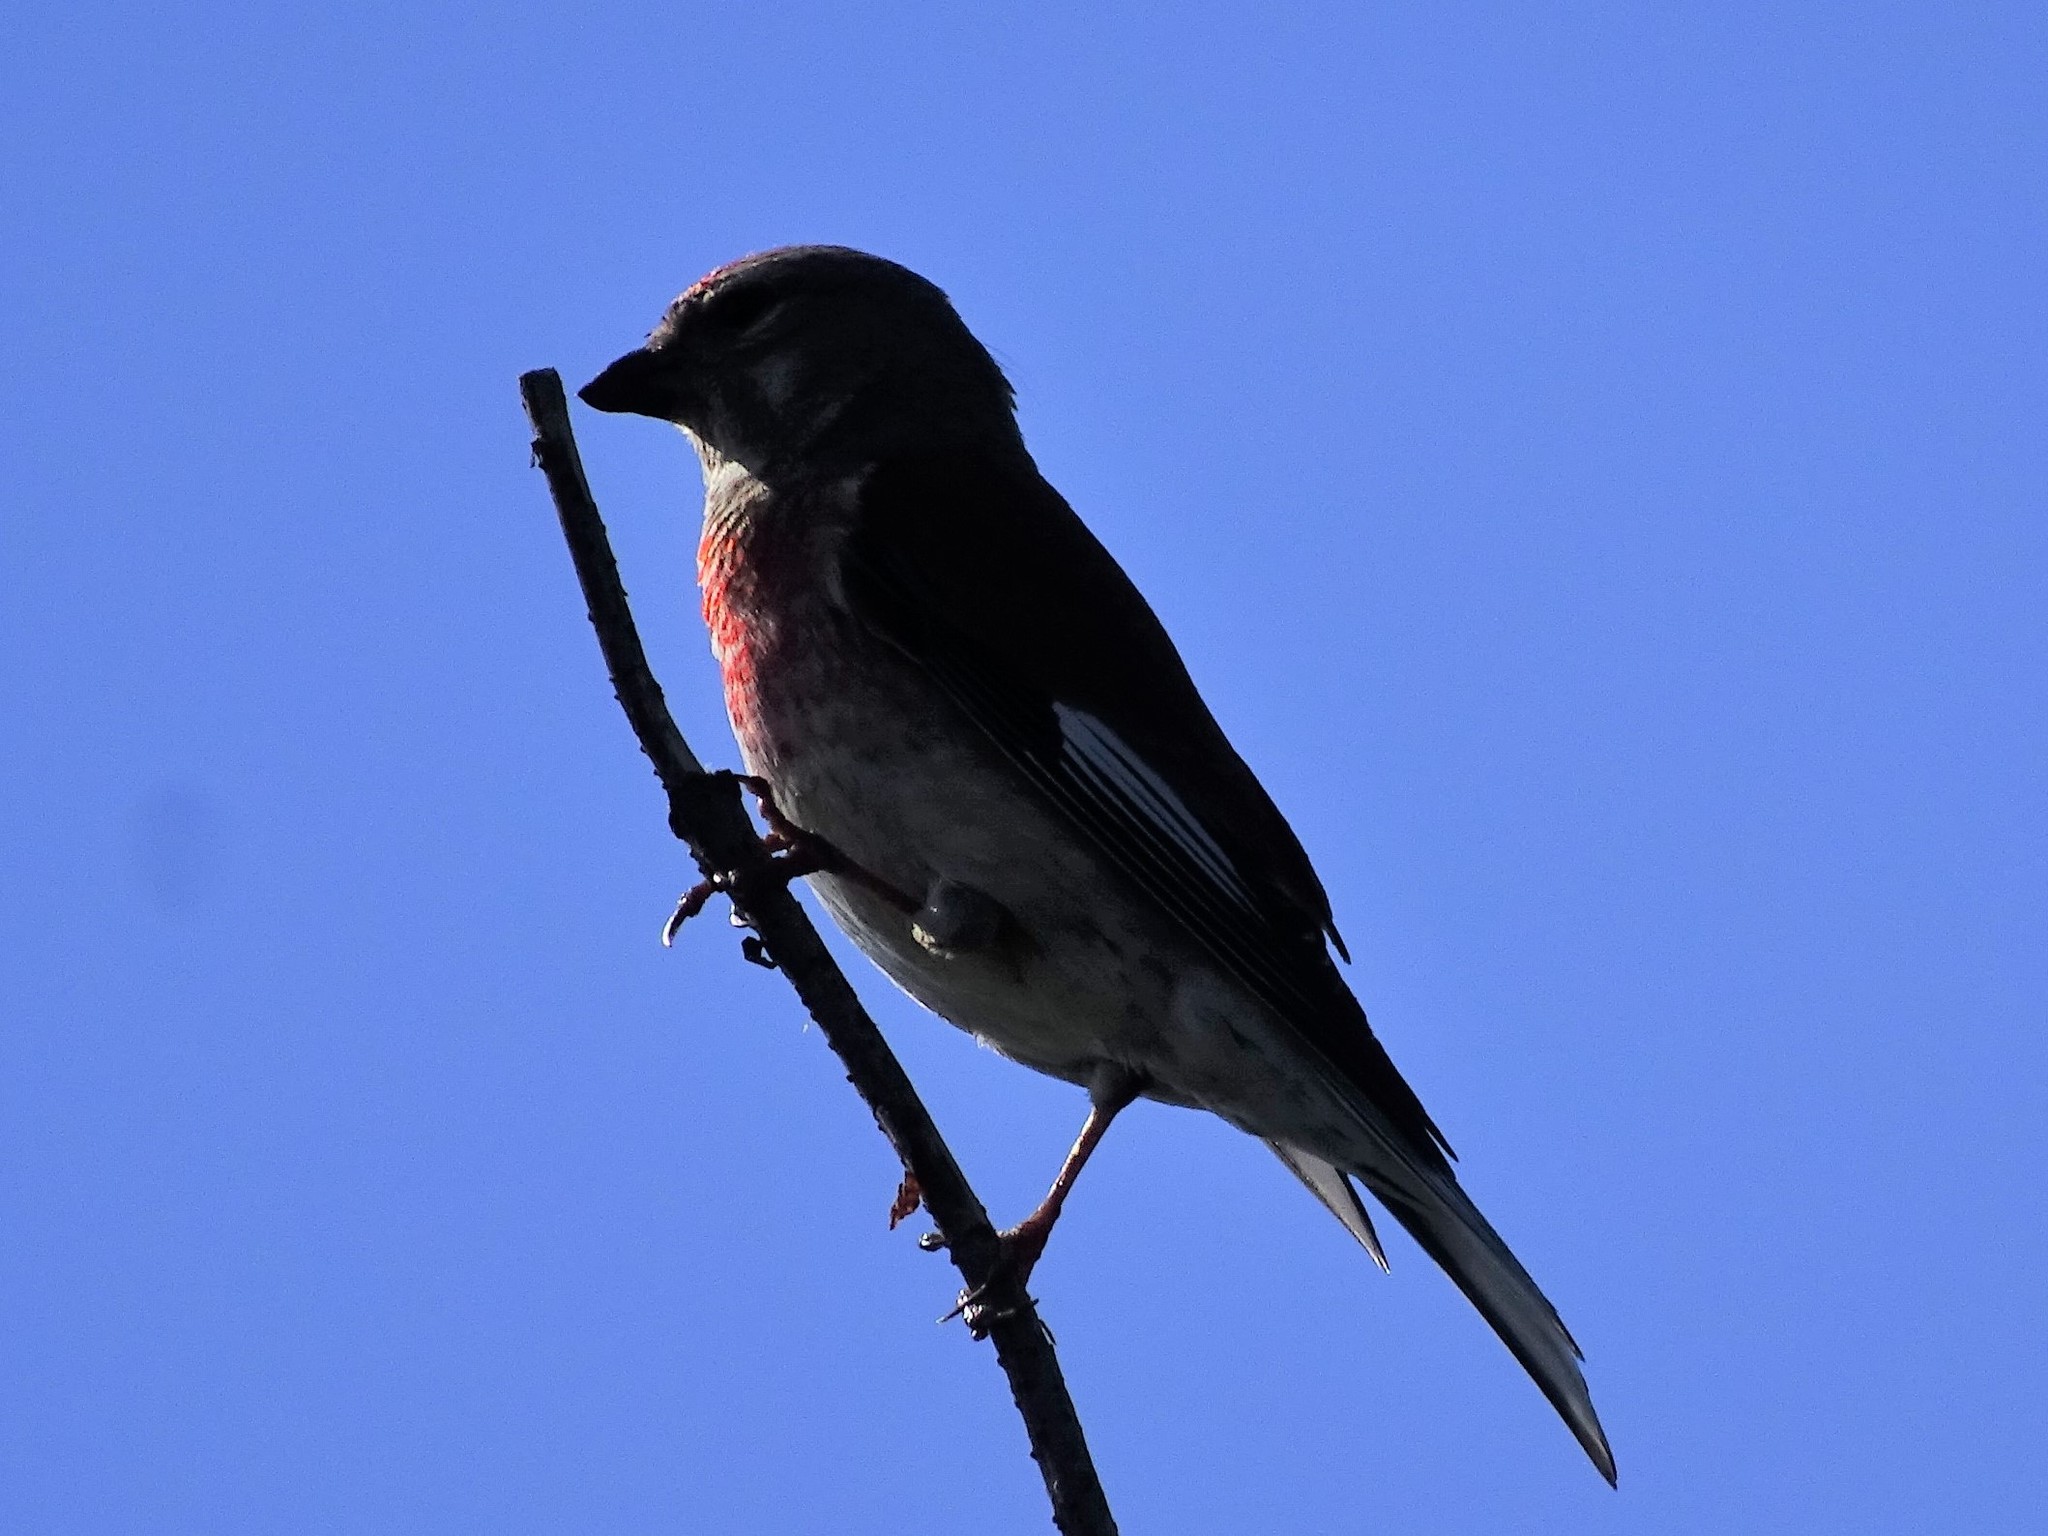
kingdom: Animalia
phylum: Chordata
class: Aves
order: Passeriformes
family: Fringillidae
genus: Linaria
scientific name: Linaria cannabina
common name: Common linnet
